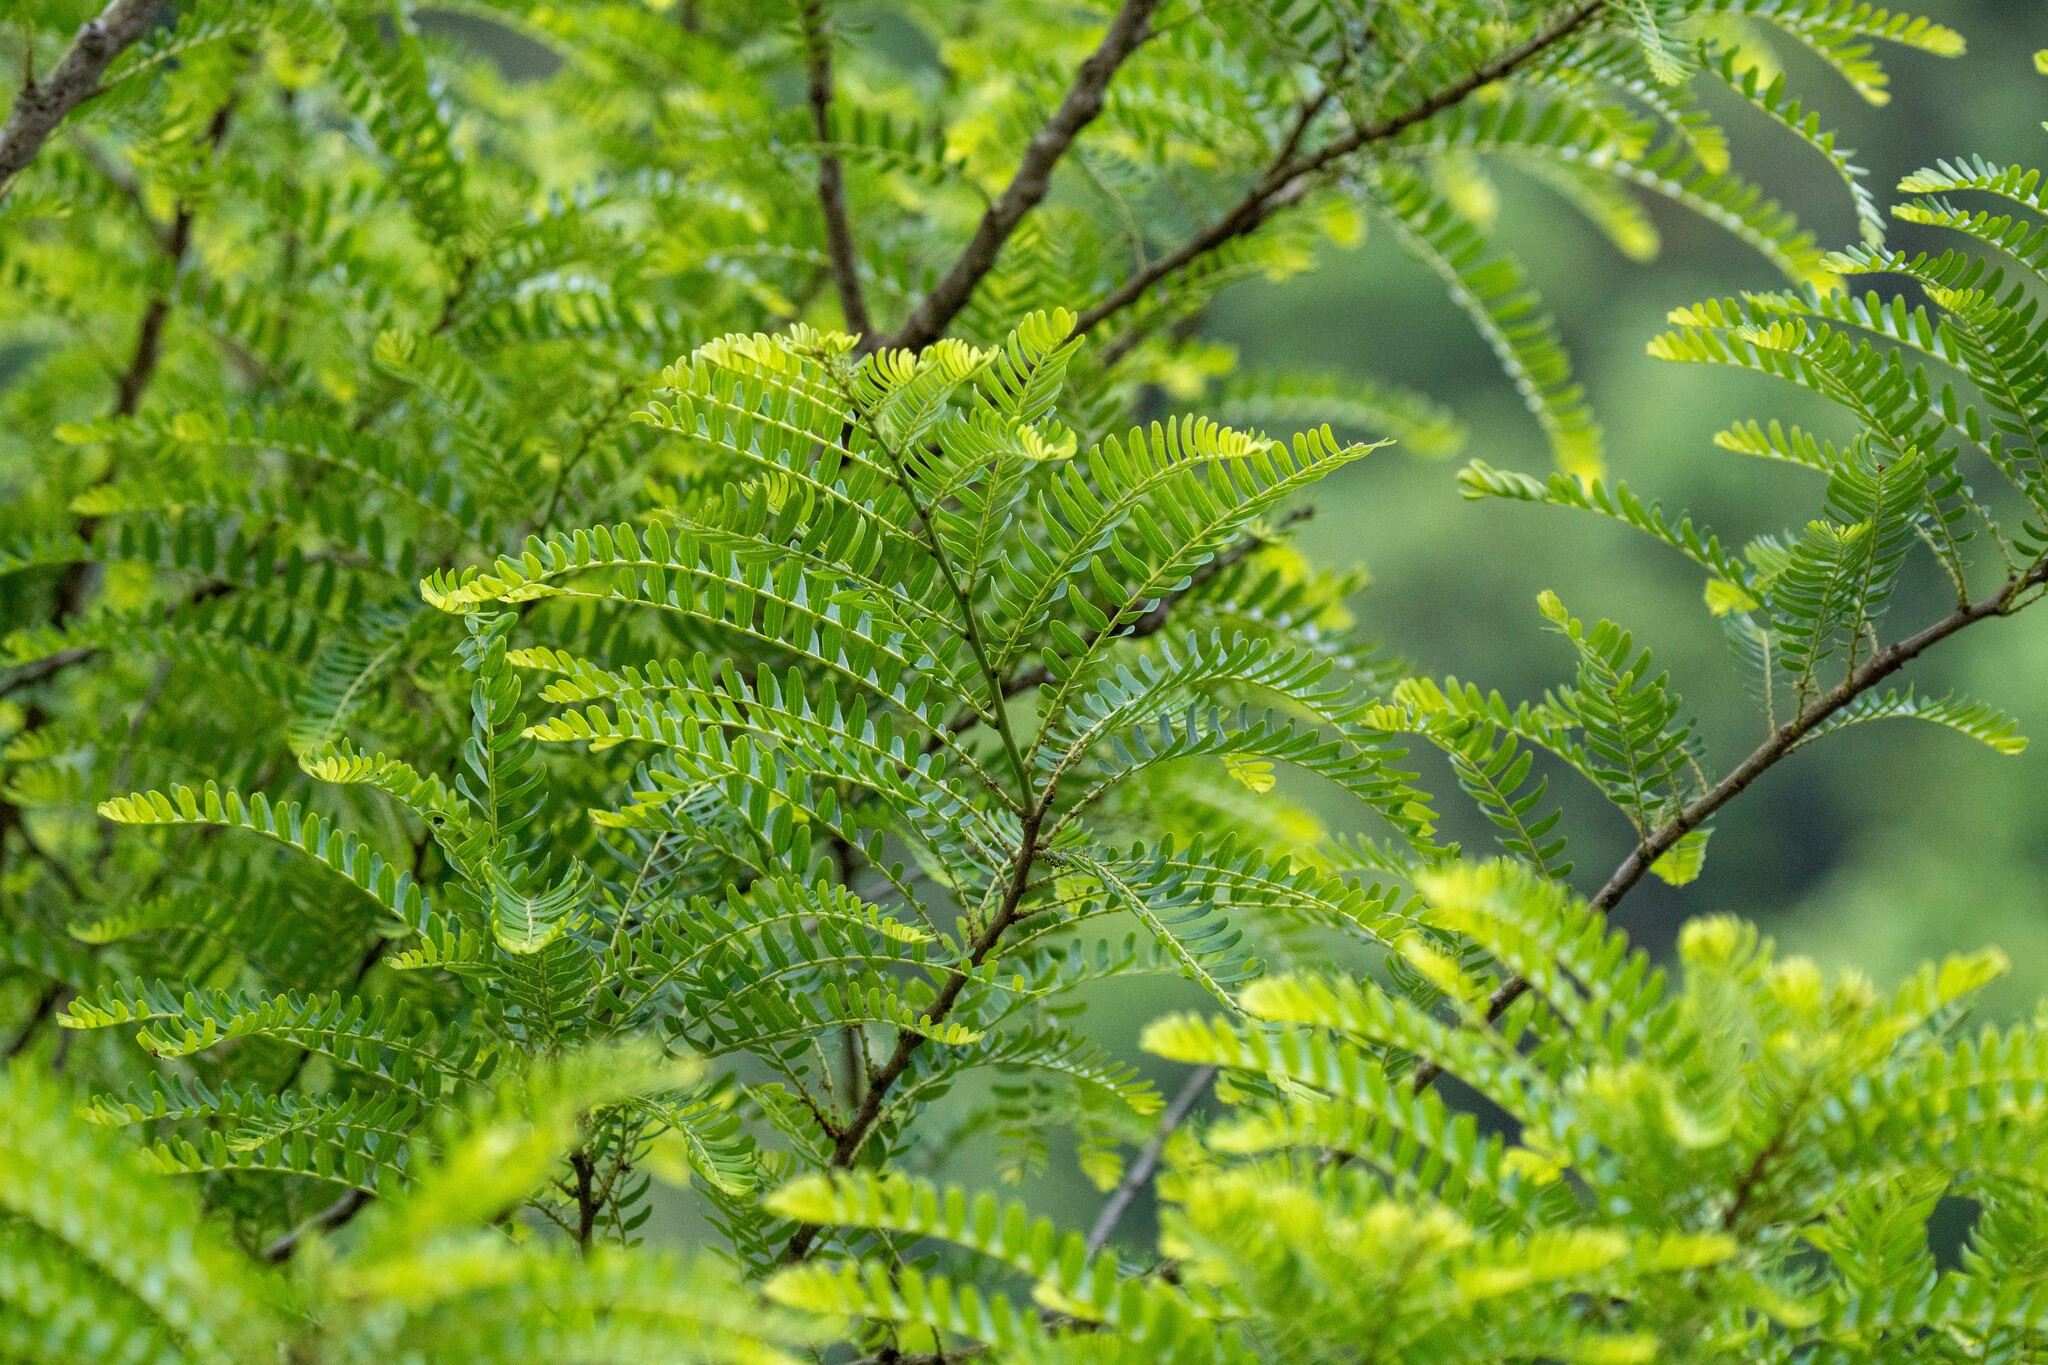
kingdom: Plantae
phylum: Tracheophyta
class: Magnoliopsida
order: Malpighiales
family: Phyllanthaceae
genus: Phyllanthus
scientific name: Phyllanthus emblica
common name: Indian gooseberry
